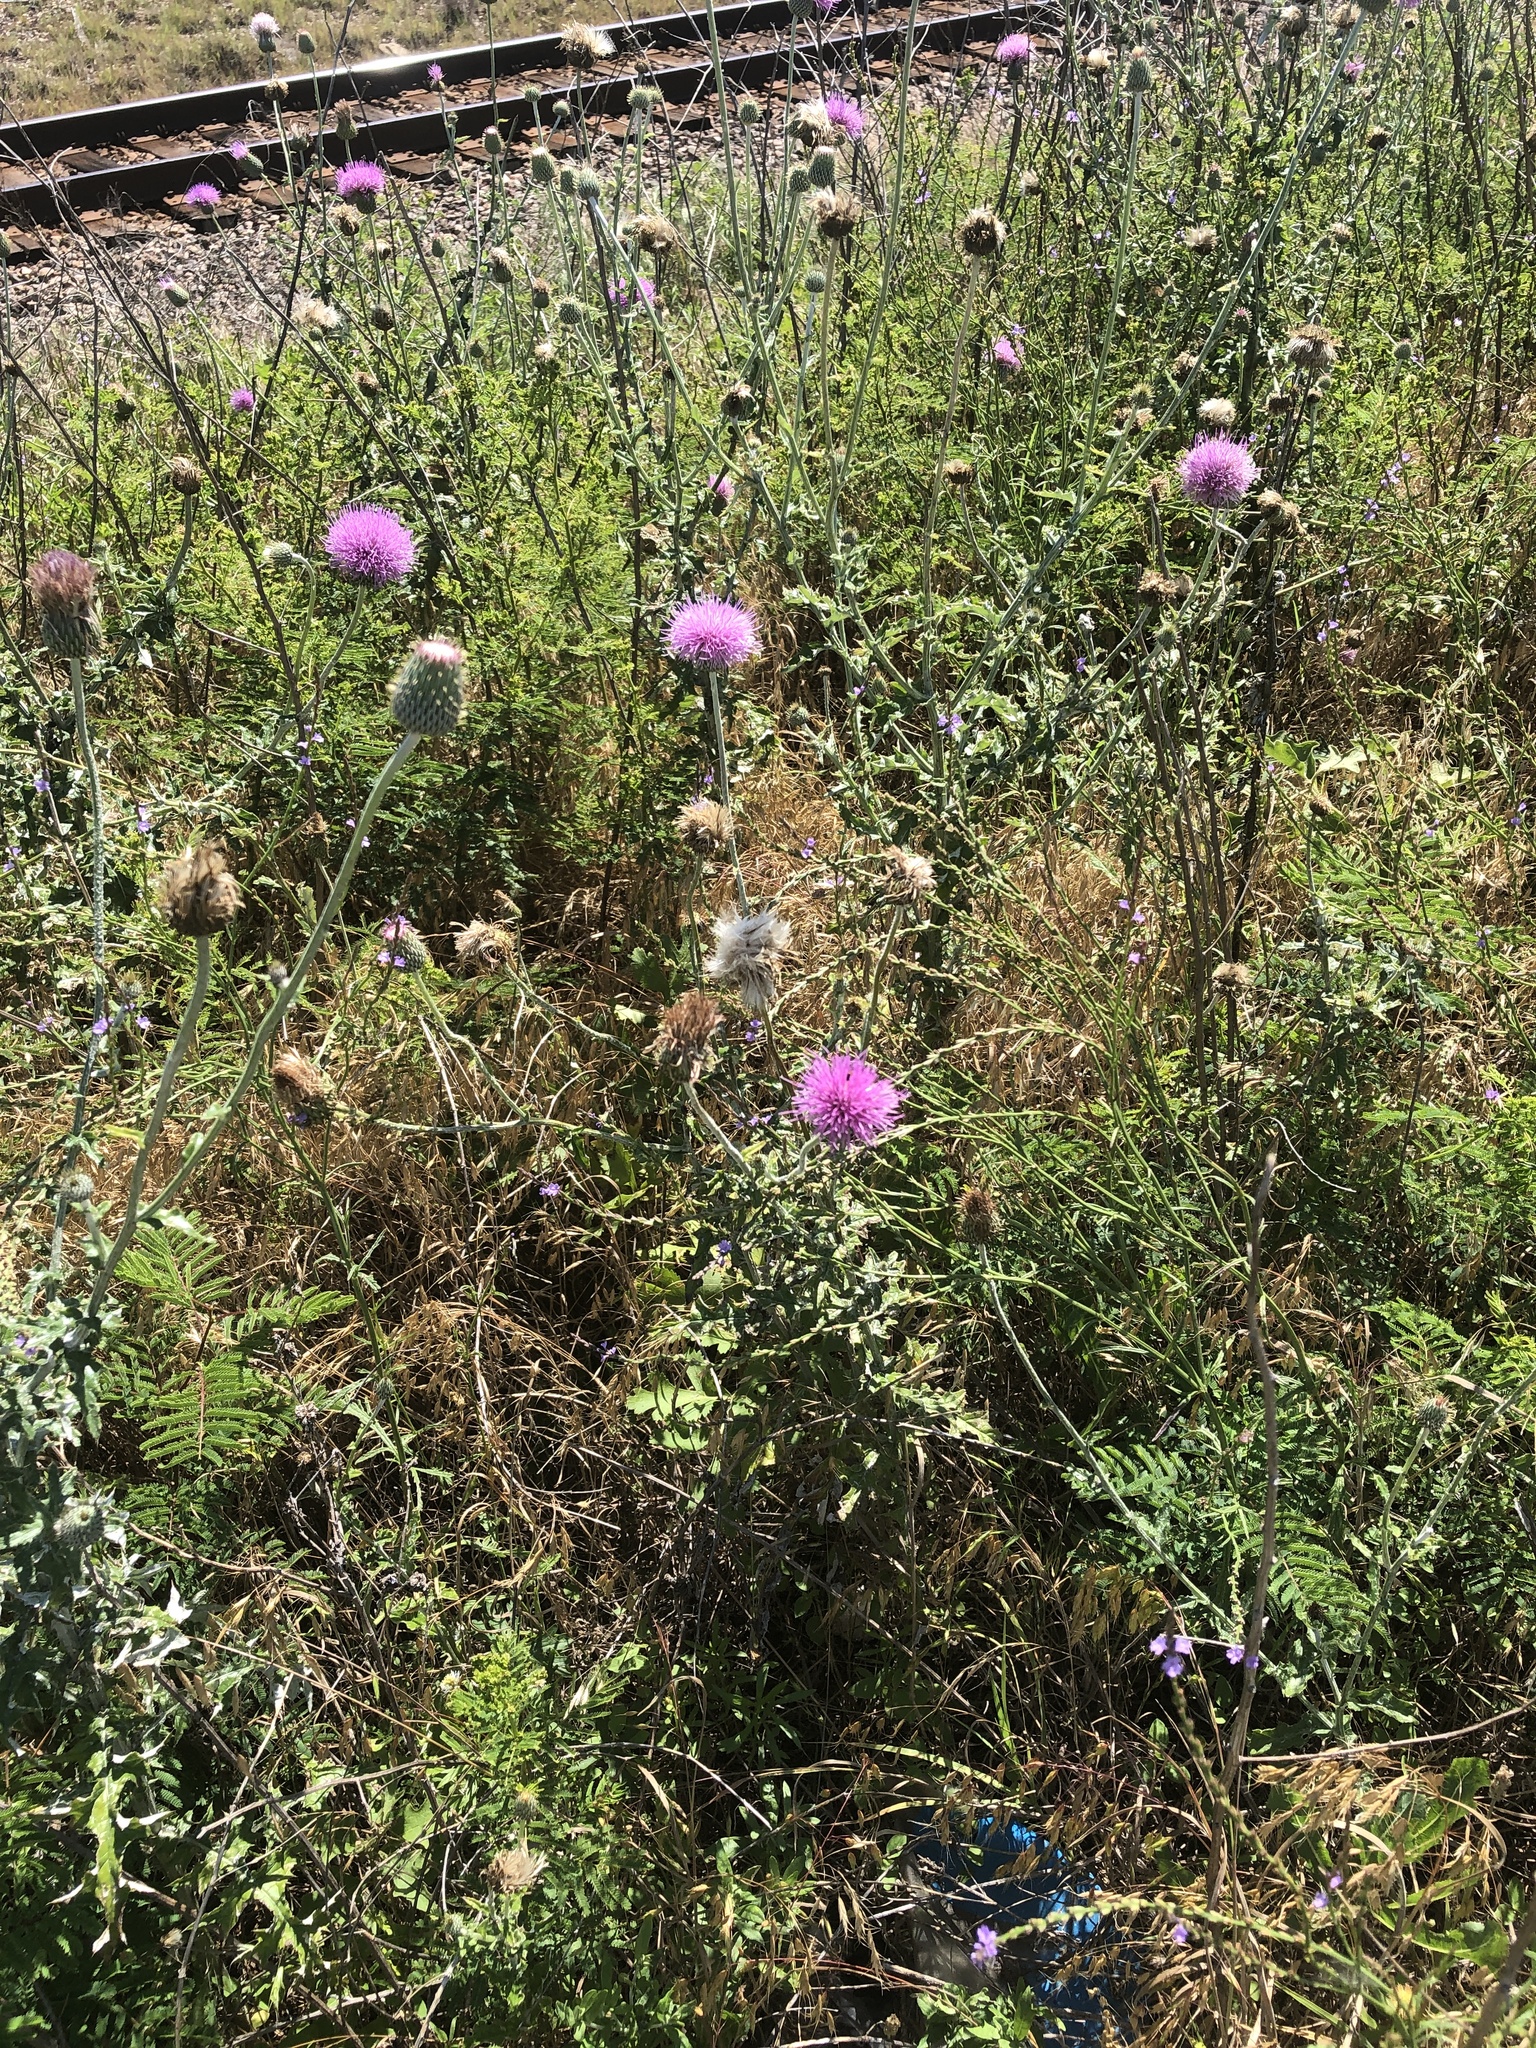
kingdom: Plantae
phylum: Tracheophyta
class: Magnoliopsida
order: Asterales
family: Asteraceae
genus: Cirsium
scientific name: Cirsium texanum
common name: Texas purple thistle
